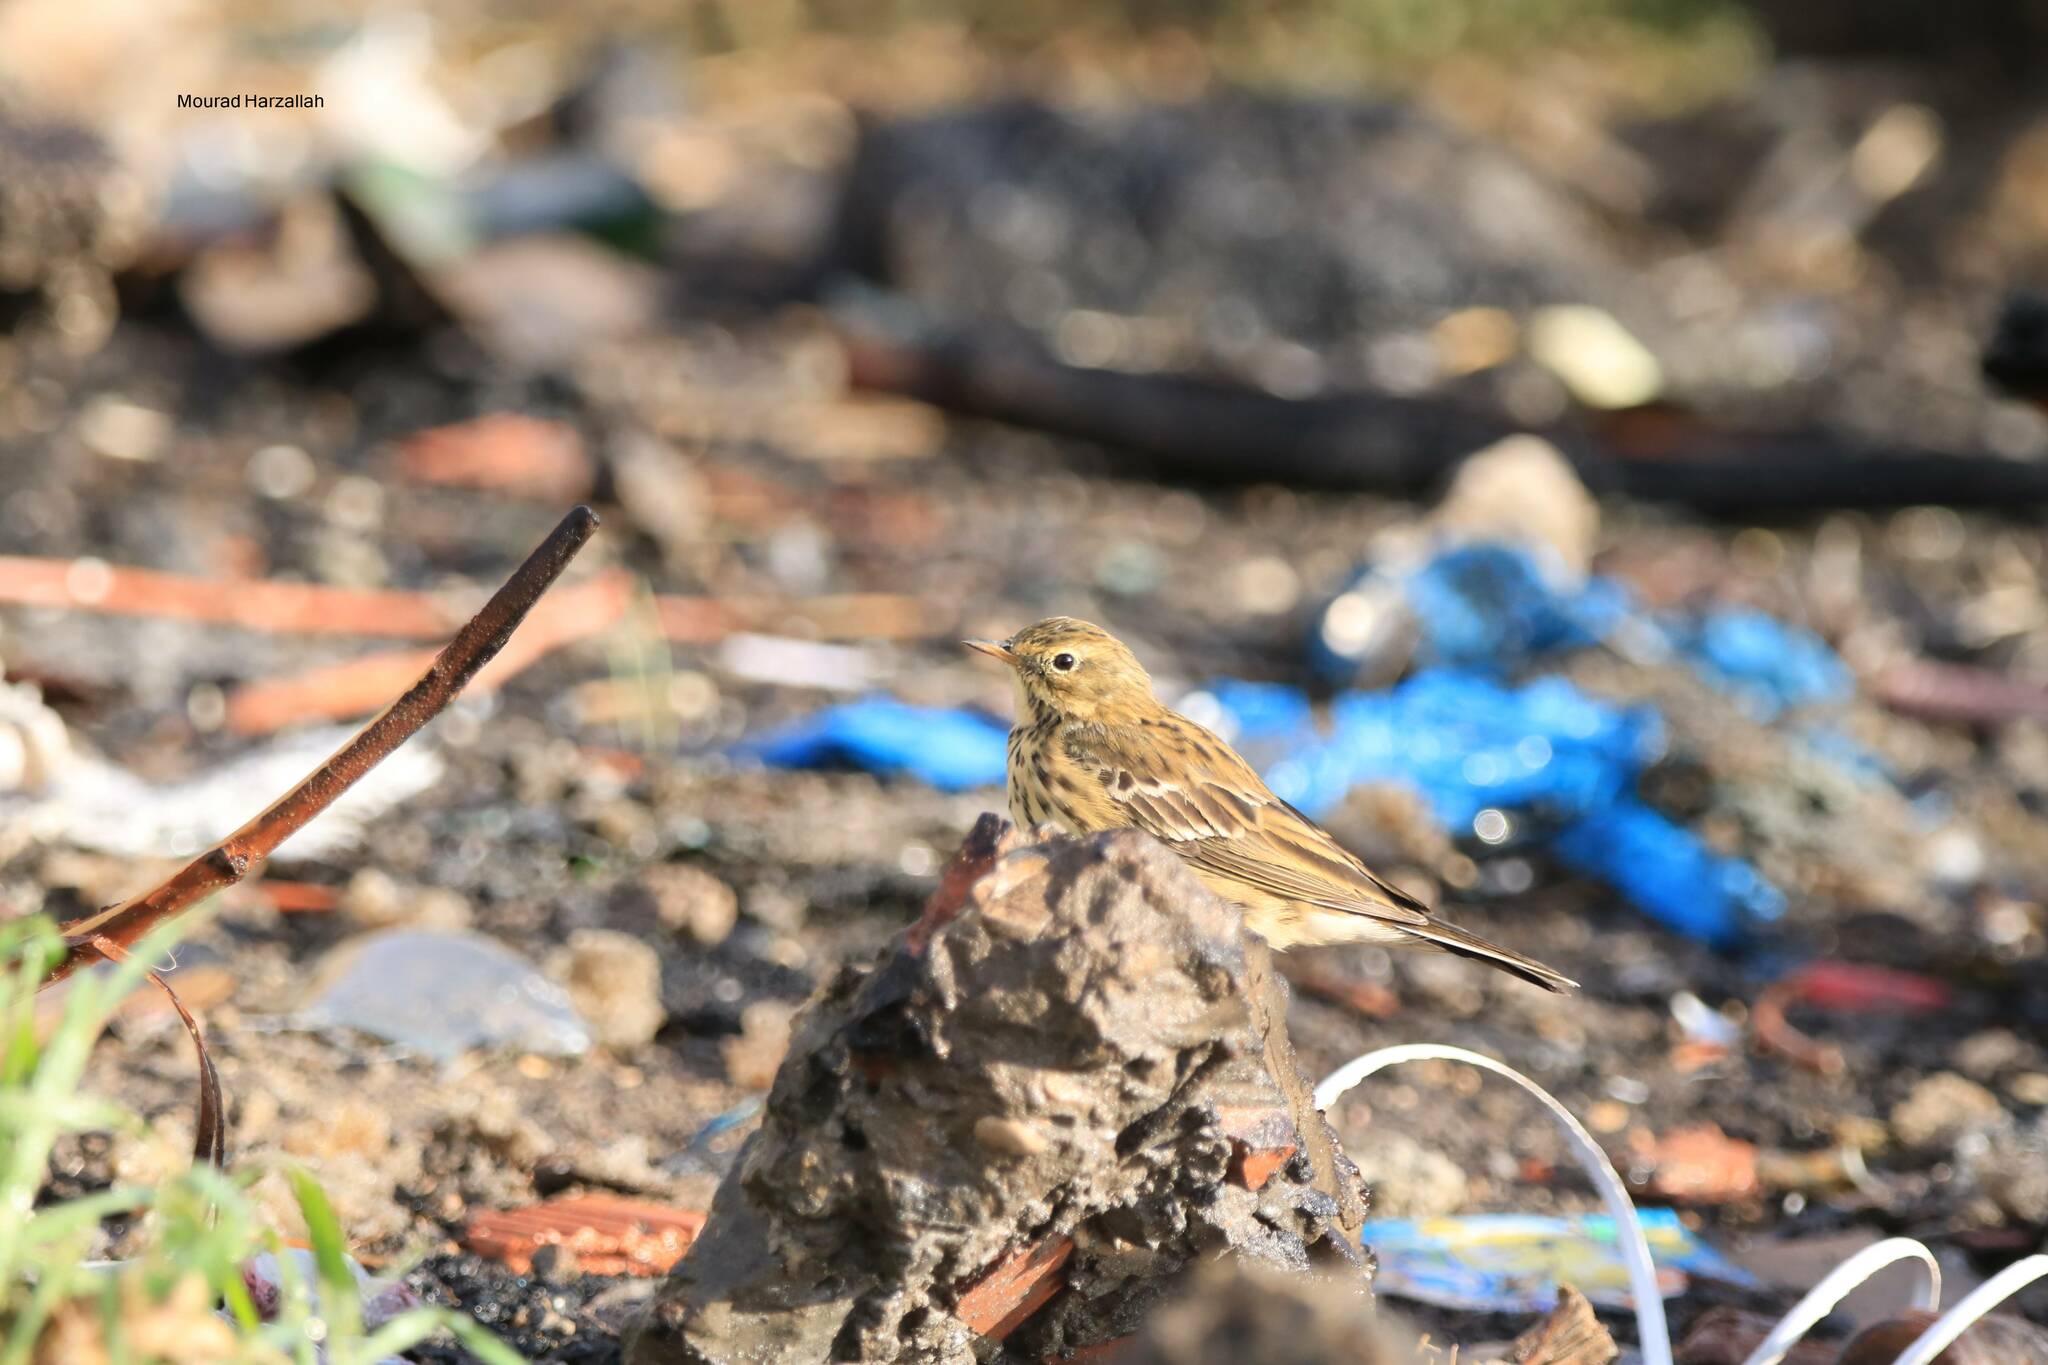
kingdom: Animalia
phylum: Chordata
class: Aves
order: Passeriformes
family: Motacillidae
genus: Anthus
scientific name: Anthus pratensis
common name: Meadow pipit
